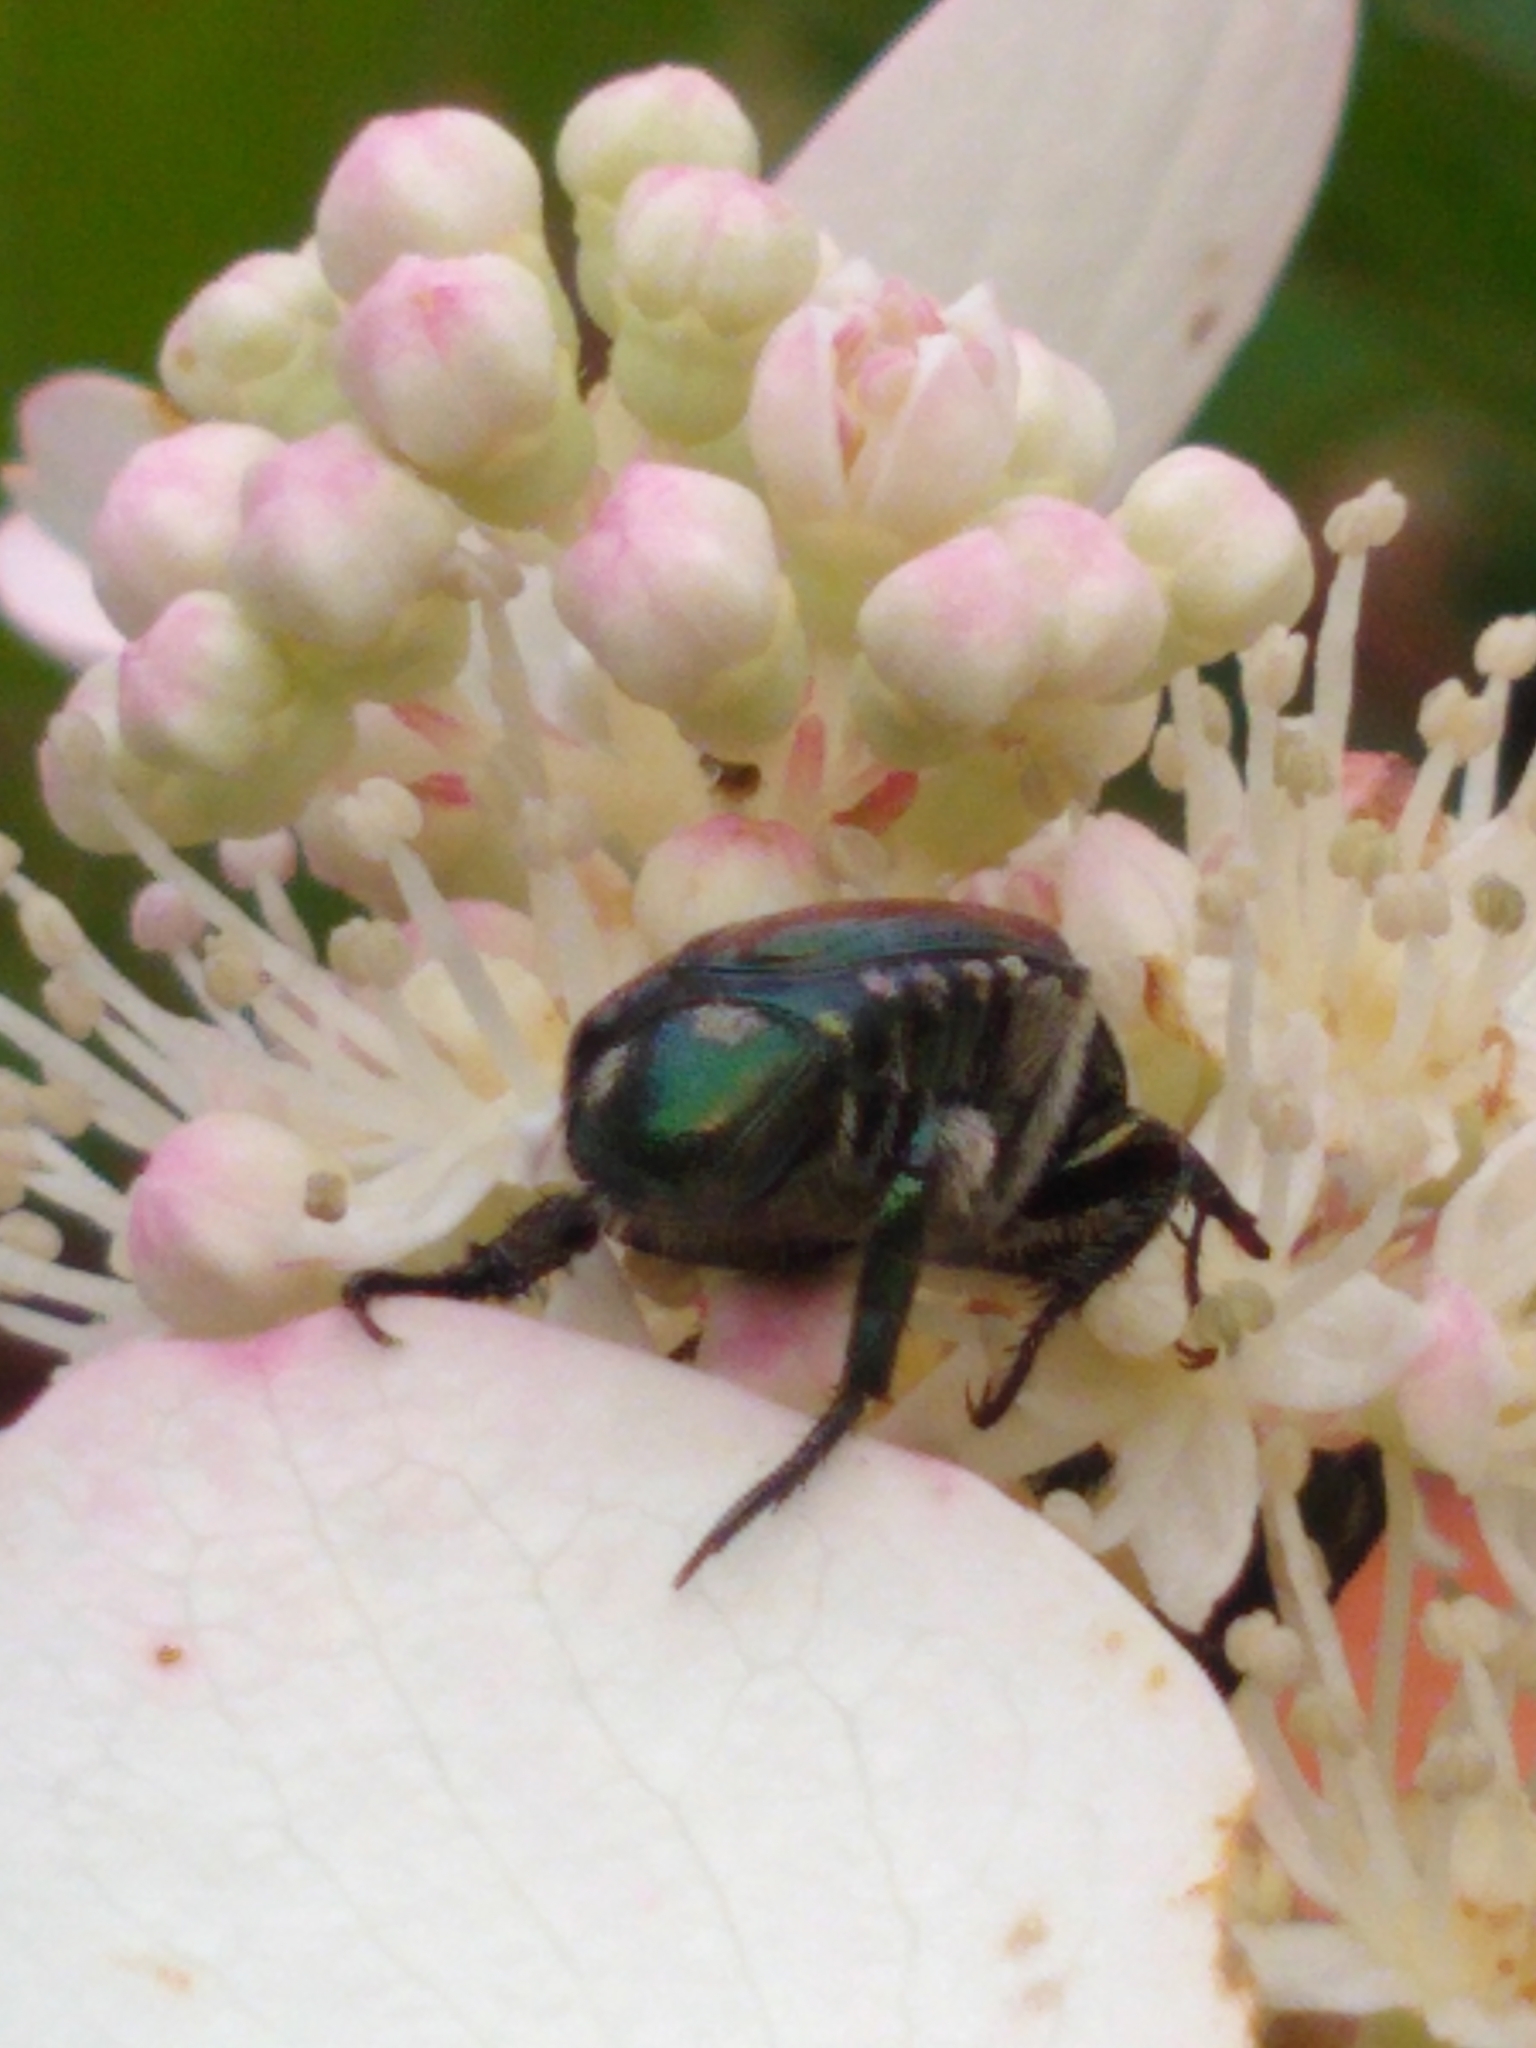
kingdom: Animalia
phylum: Arthropoda
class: Insecta
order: Coleoptera
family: Scarabaeidae
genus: Popillia
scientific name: Popillia japonica
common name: Japanese beetle
